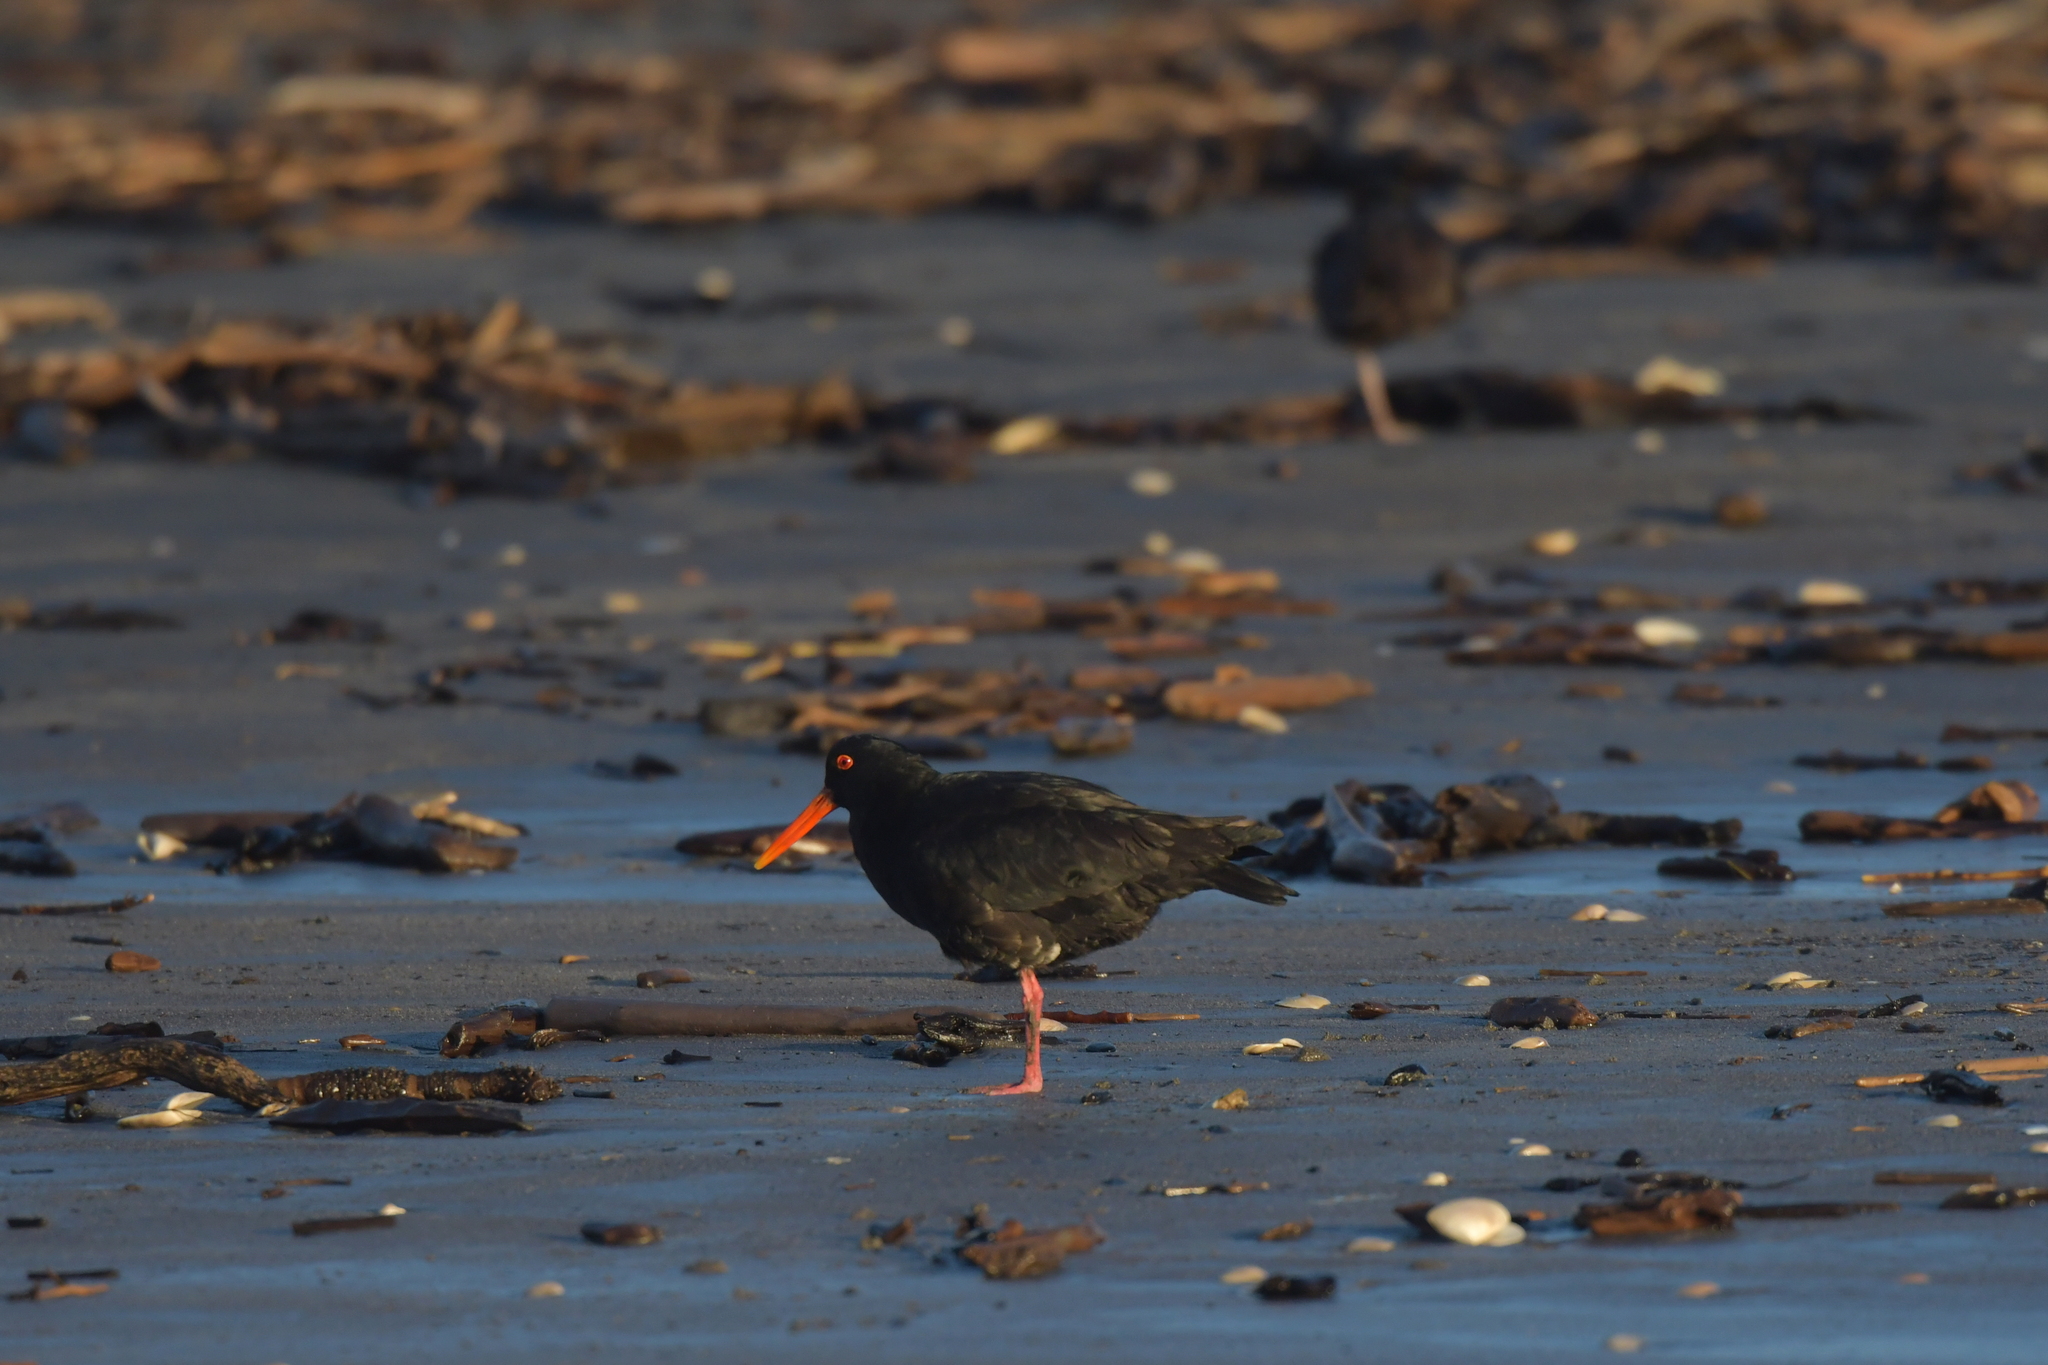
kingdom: Animalia
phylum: Chordata
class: Aves
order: Charadriiformes
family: Haematopodidae
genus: Haematopus
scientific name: Haematopus unicolor
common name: Variable oystercatcher
